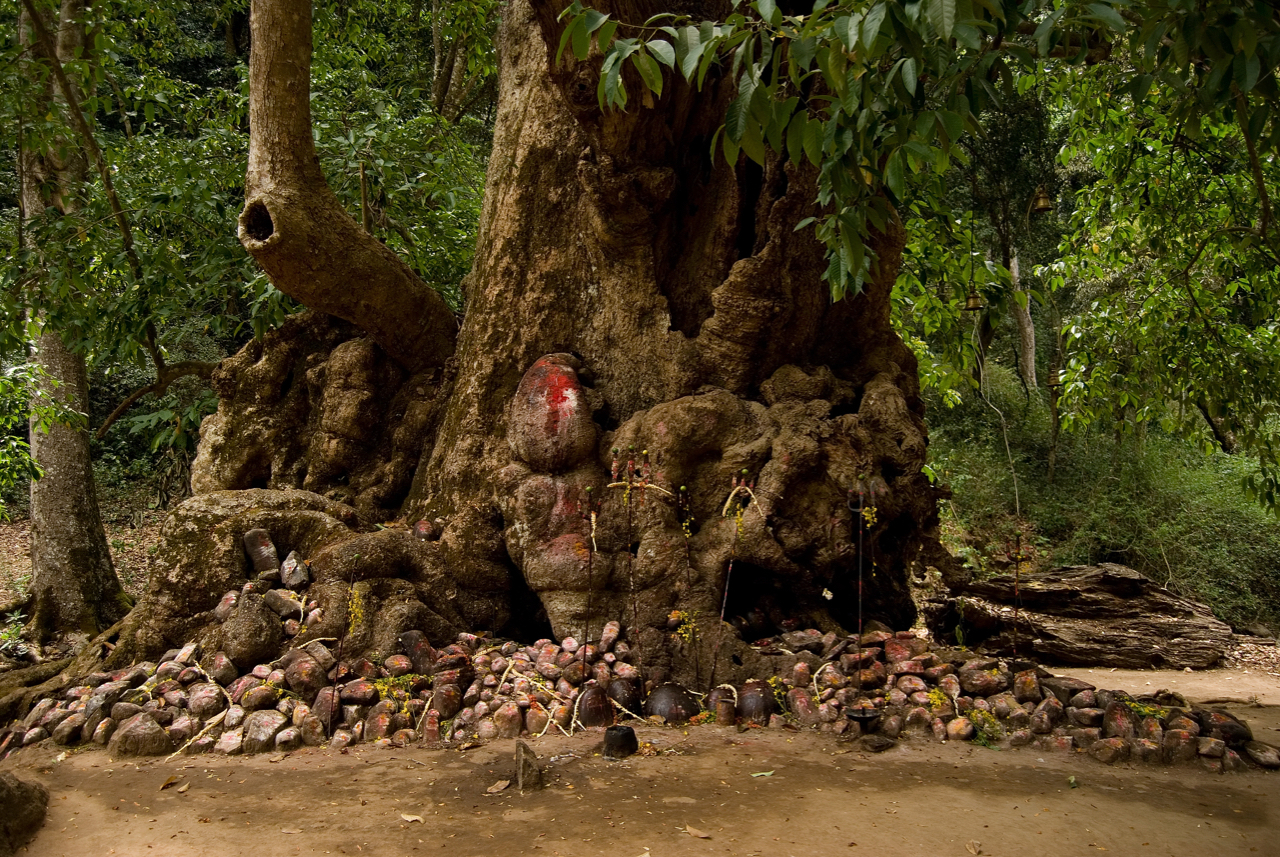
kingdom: Plantae
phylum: Tracheophyta
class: Magnoliopsida
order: Magnoliales
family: Magnoliaceae
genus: Magnolia
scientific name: Magnolia champaca
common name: Champak
